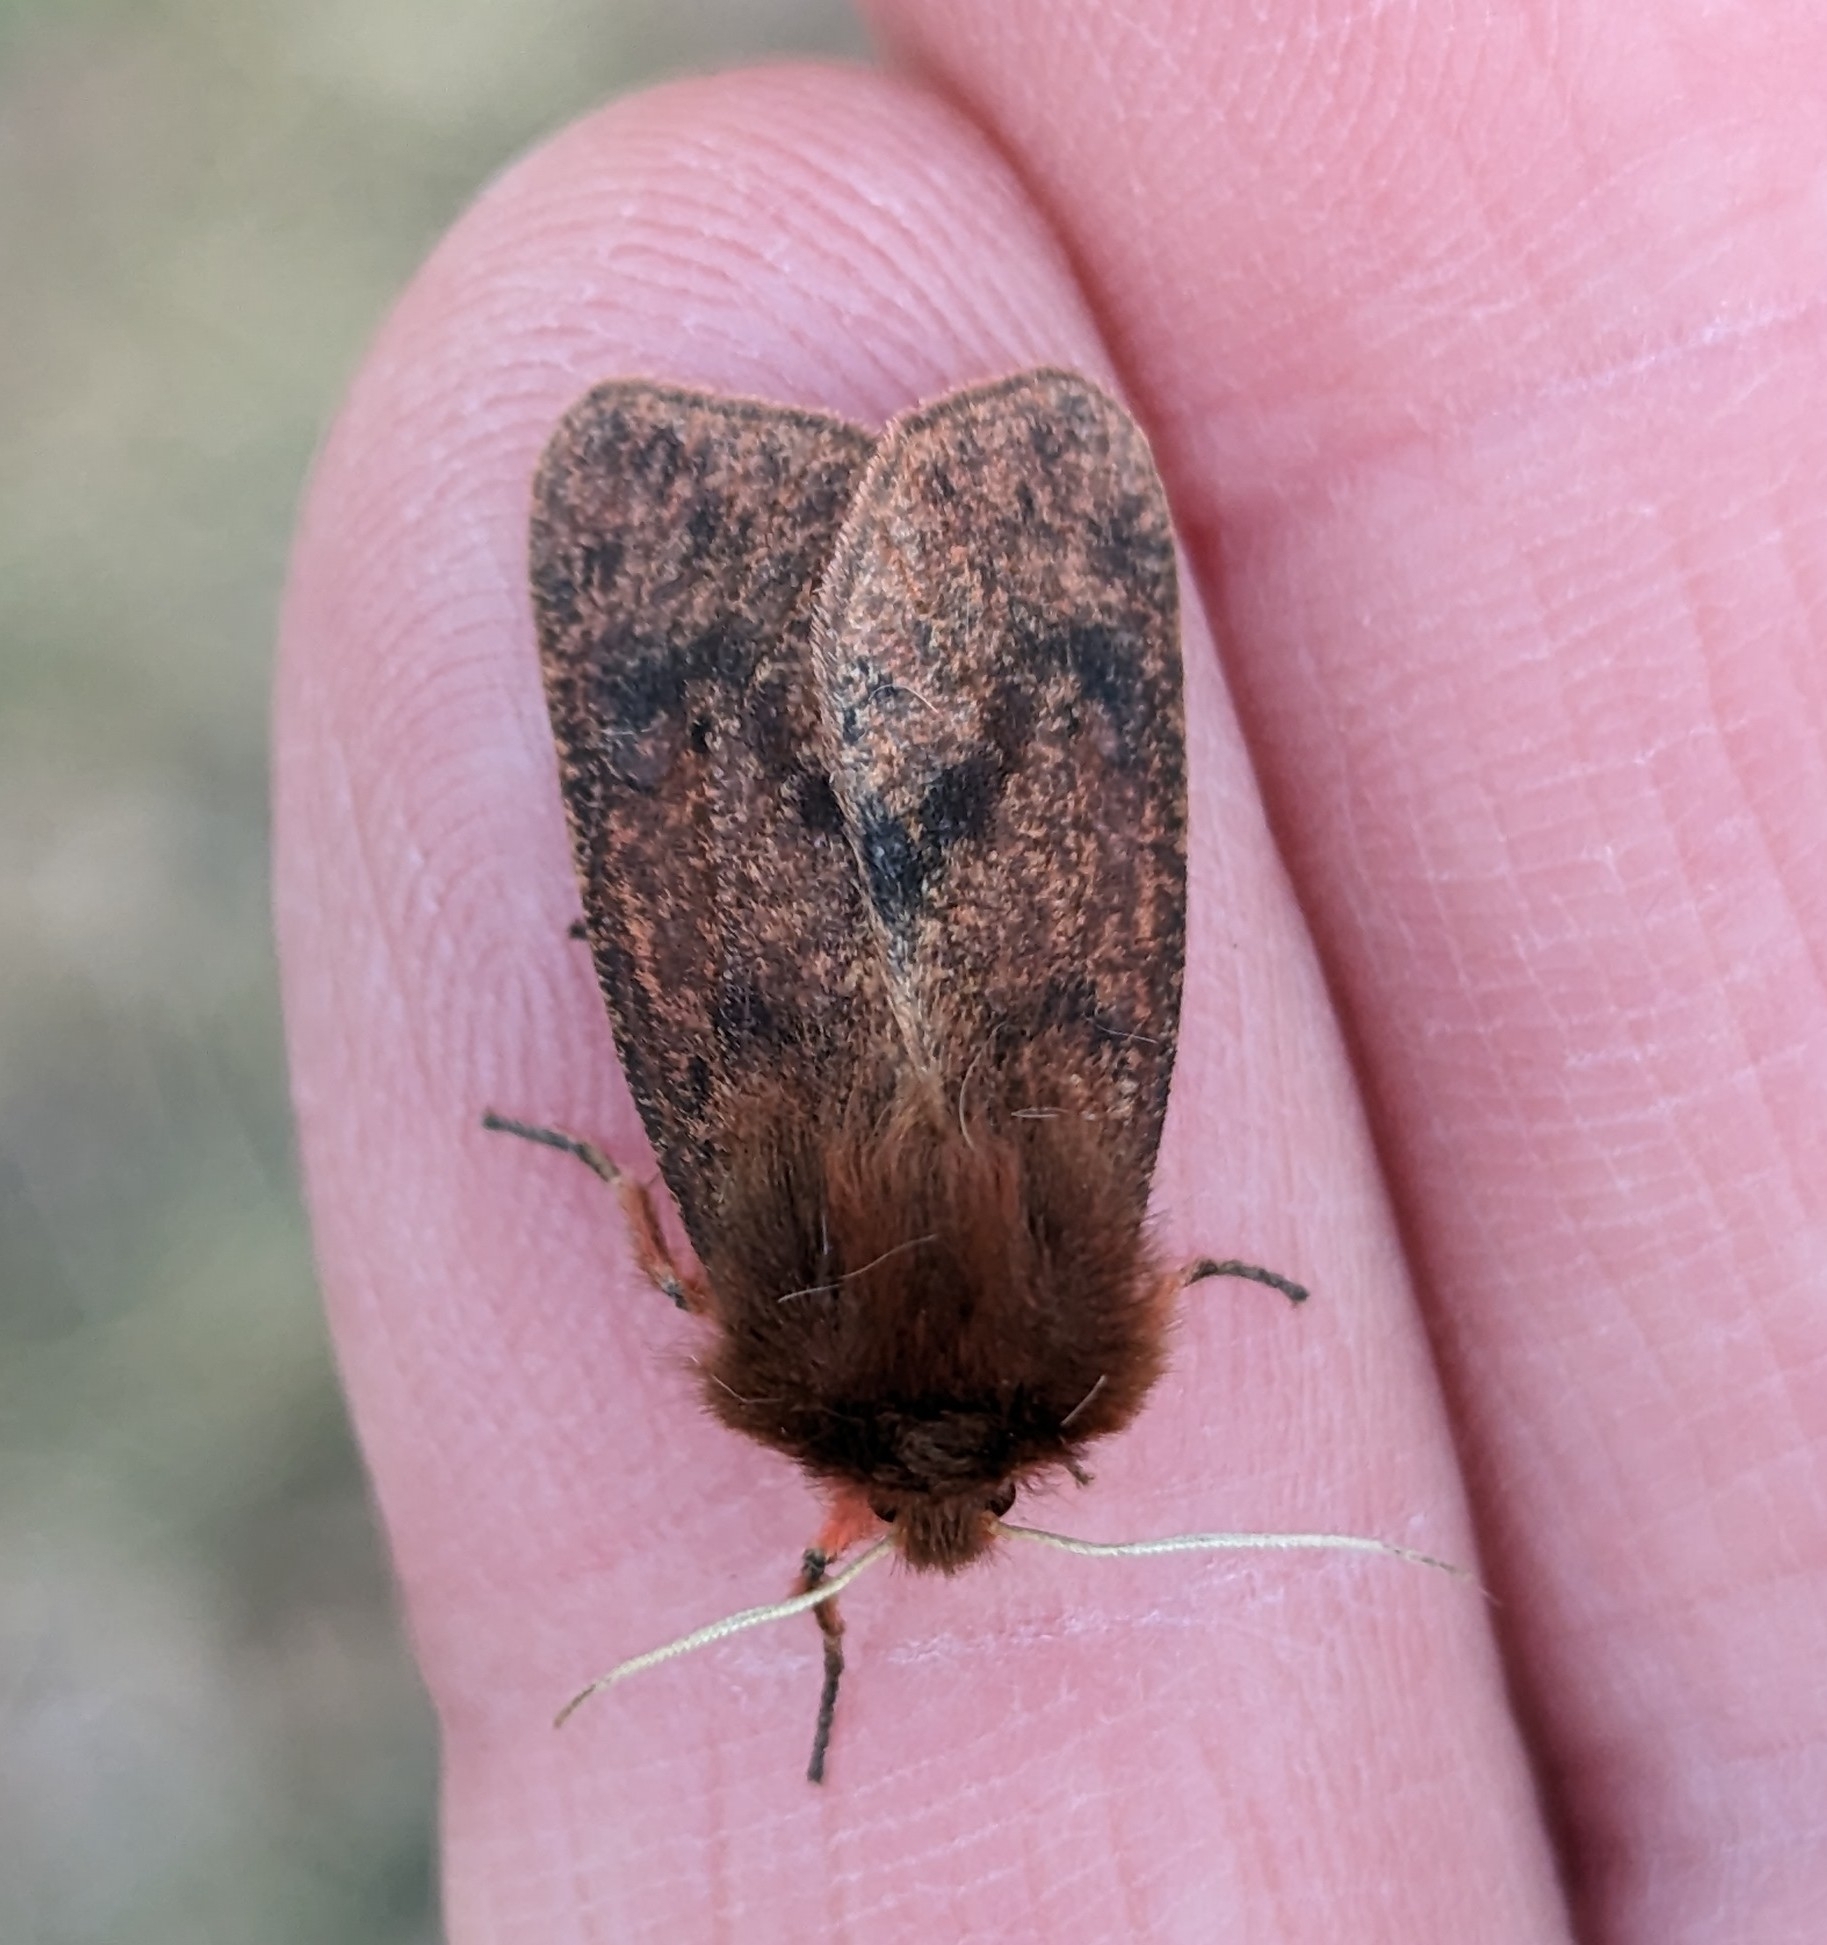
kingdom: Animalia
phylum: Arthropoda
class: Insecta
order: Lepidoptera
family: Erebidae
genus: Phragmatobia
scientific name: Phragmatobia assimilans
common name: Large ruby tiger moth
